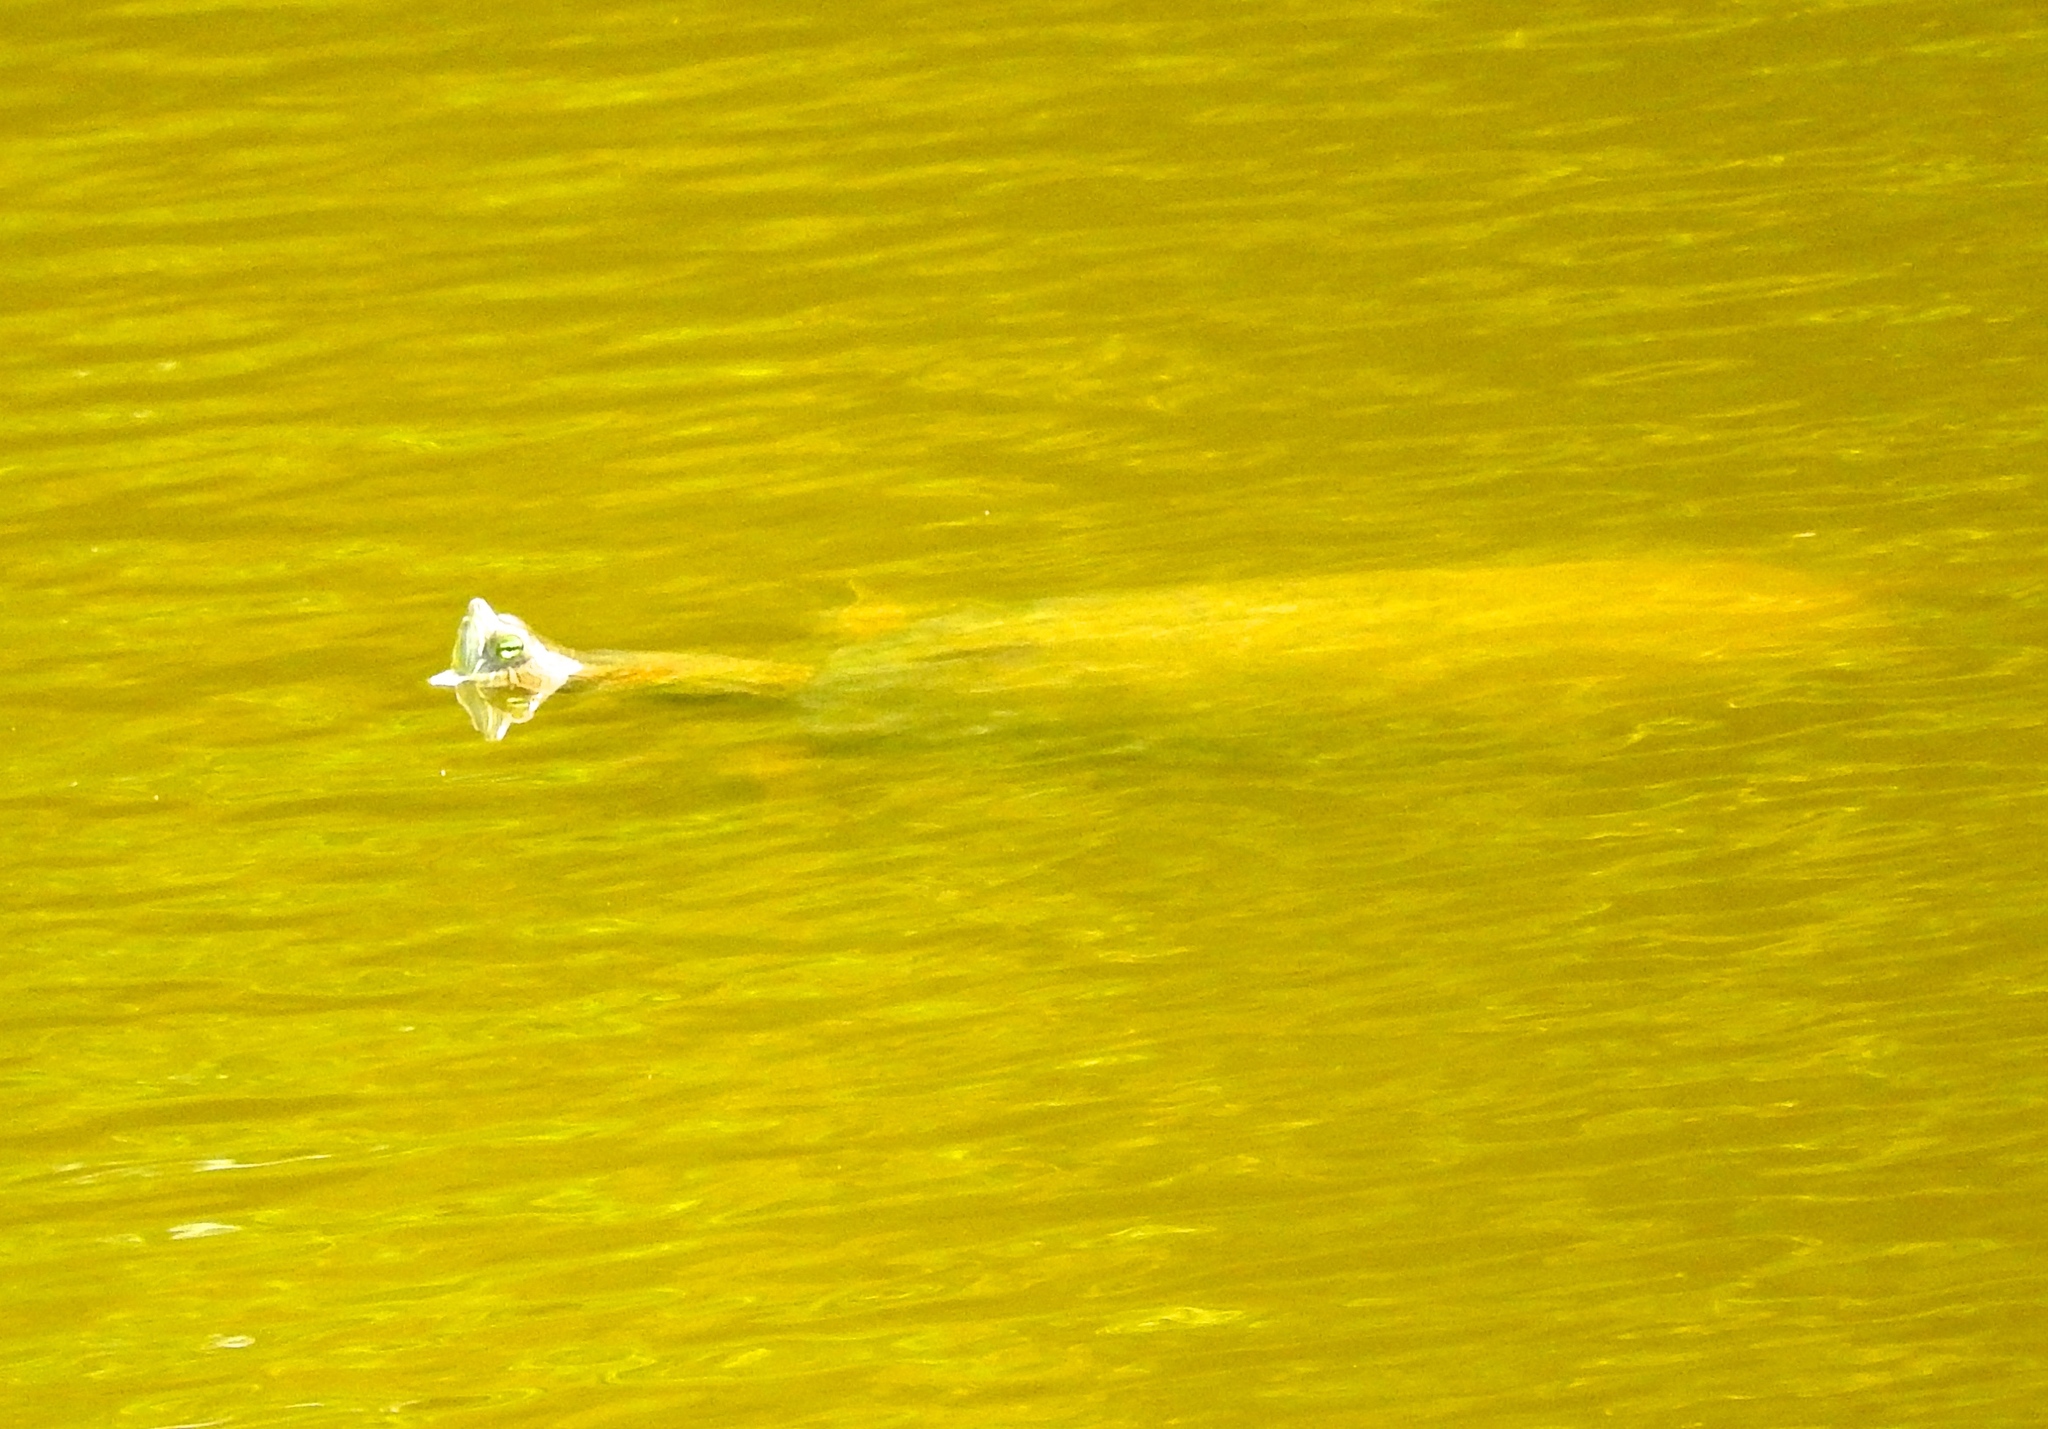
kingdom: Animalia
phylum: Chordata
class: Testudines
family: Emydidae
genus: Trachemys
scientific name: Trachemys
